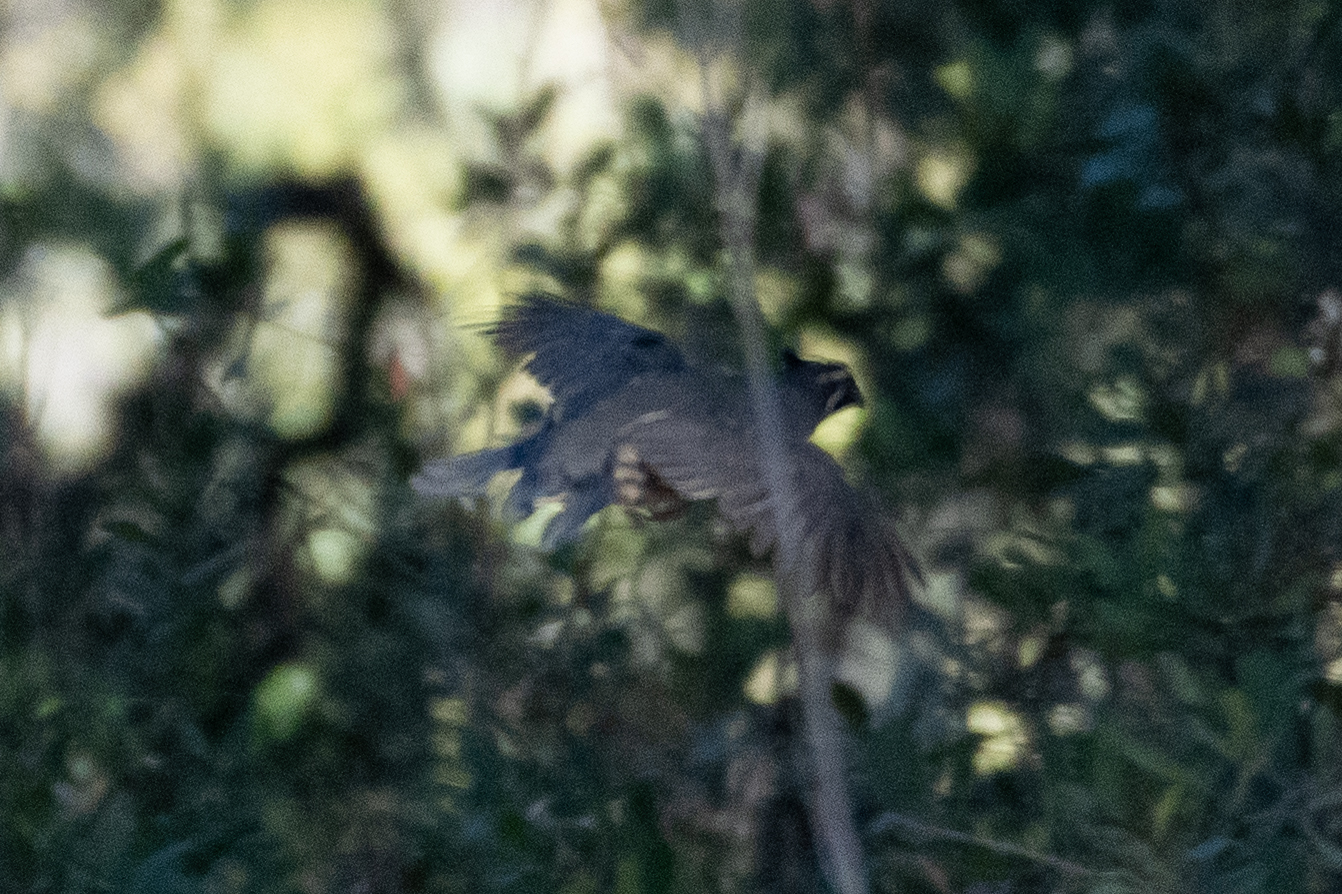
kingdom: Animalia
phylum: Chordata
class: Aves
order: Galliformes
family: Odontophoridae
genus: Callipepla
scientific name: Callipepla californica
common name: California quail
